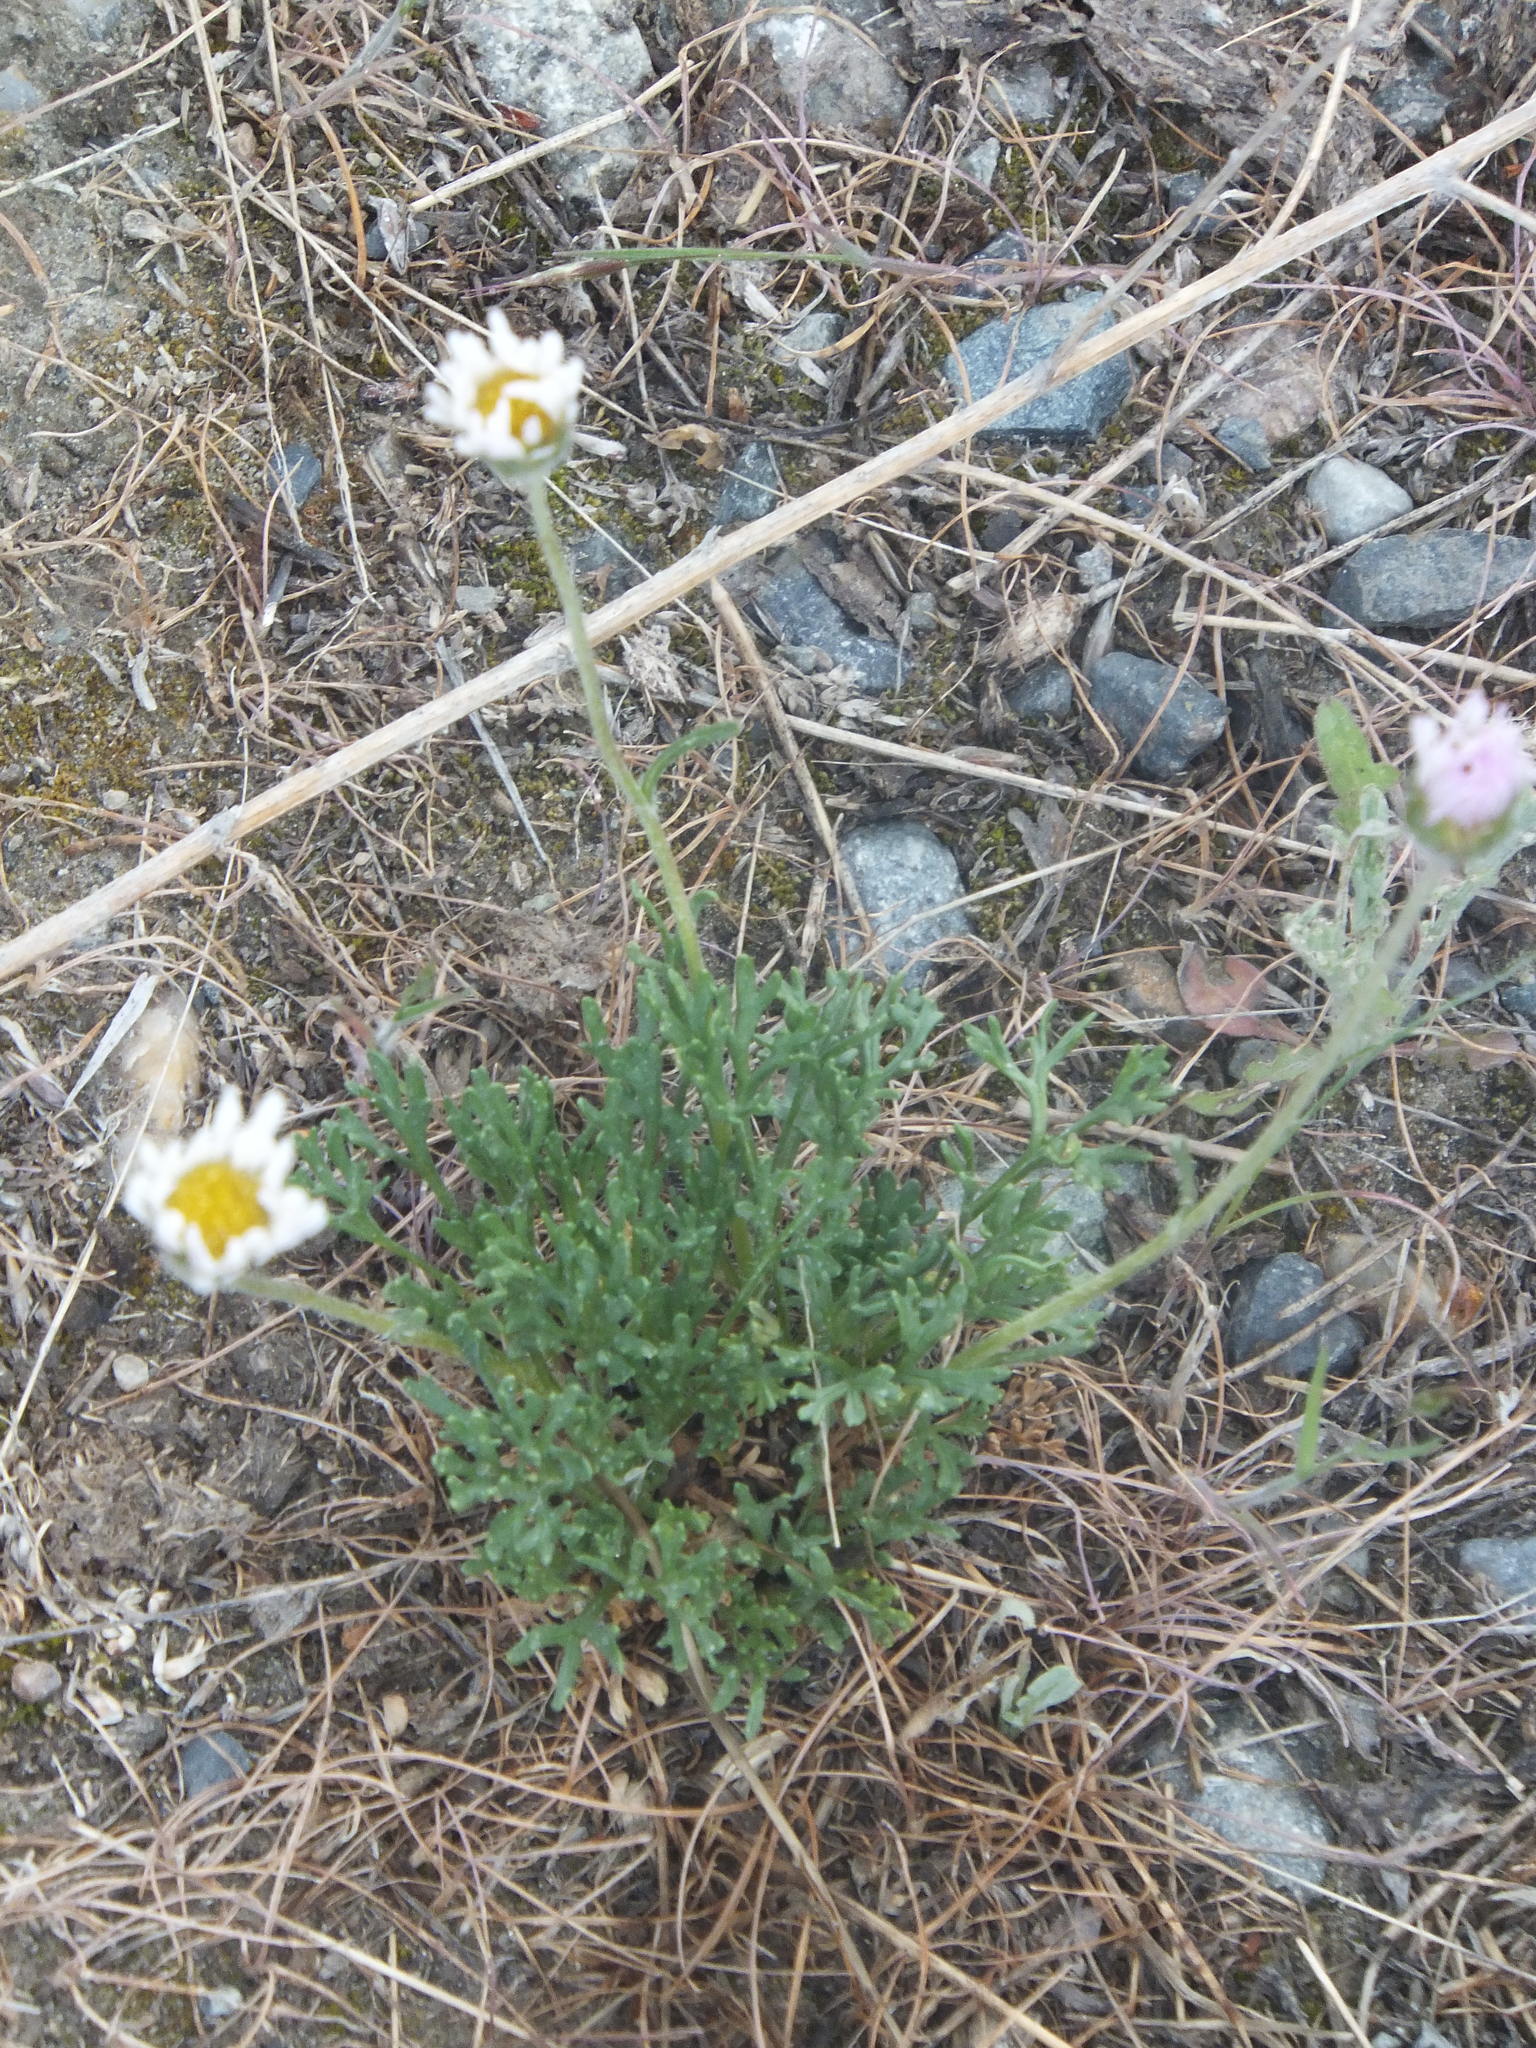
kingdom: Plantae
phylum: Tracheophyta
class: Magnoliopsida
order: Asterales
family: Asteraceae
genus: Erigeron
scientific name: Erigeron compositus
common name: Dwarf mountain fleabane
